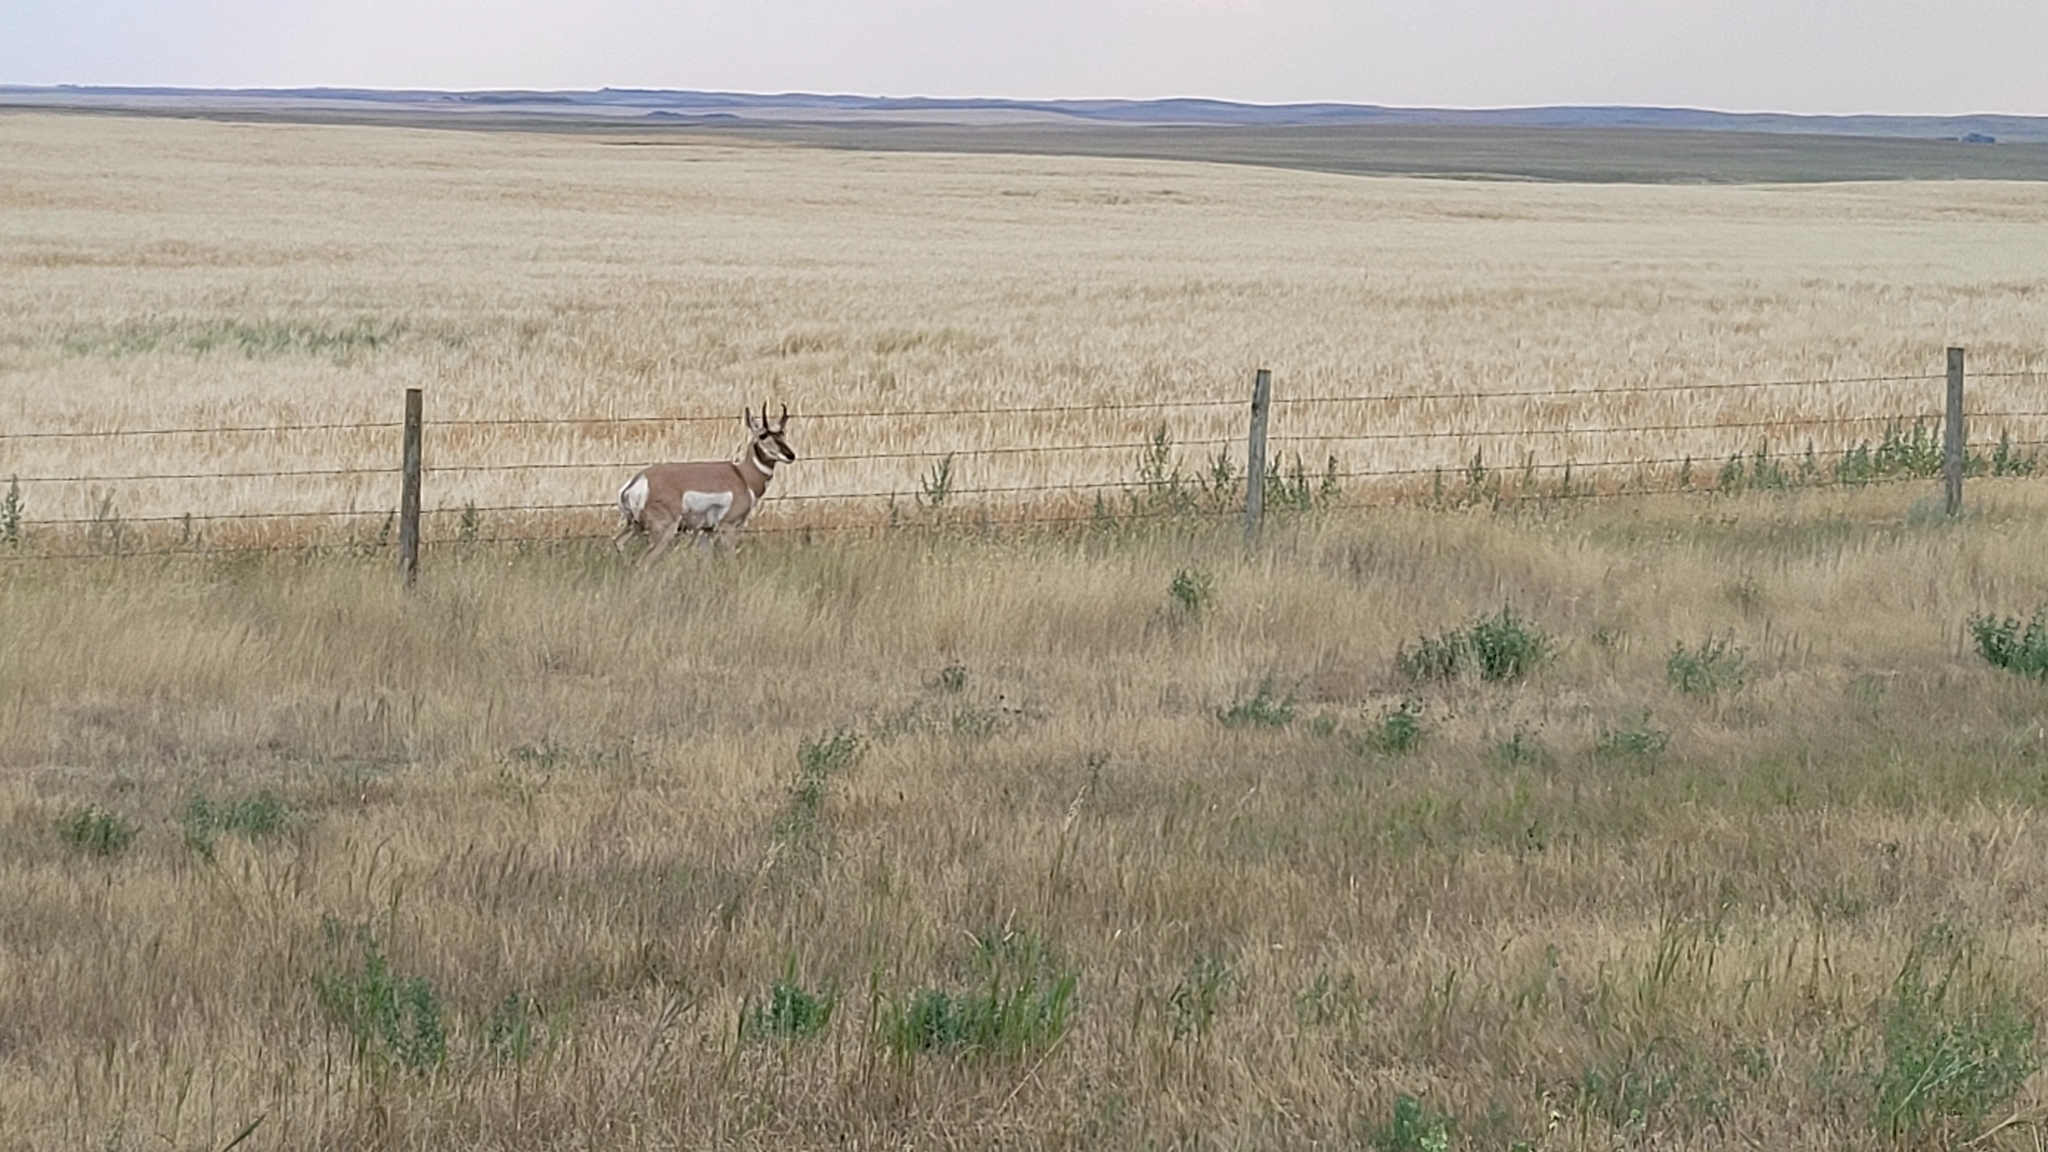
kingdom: Animalia
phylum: Chordata
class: Mammalia
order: Artiodactyla
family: Antilocapridae
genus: Antilocapra
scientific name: Antilocapra americana
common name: Pronghorn
